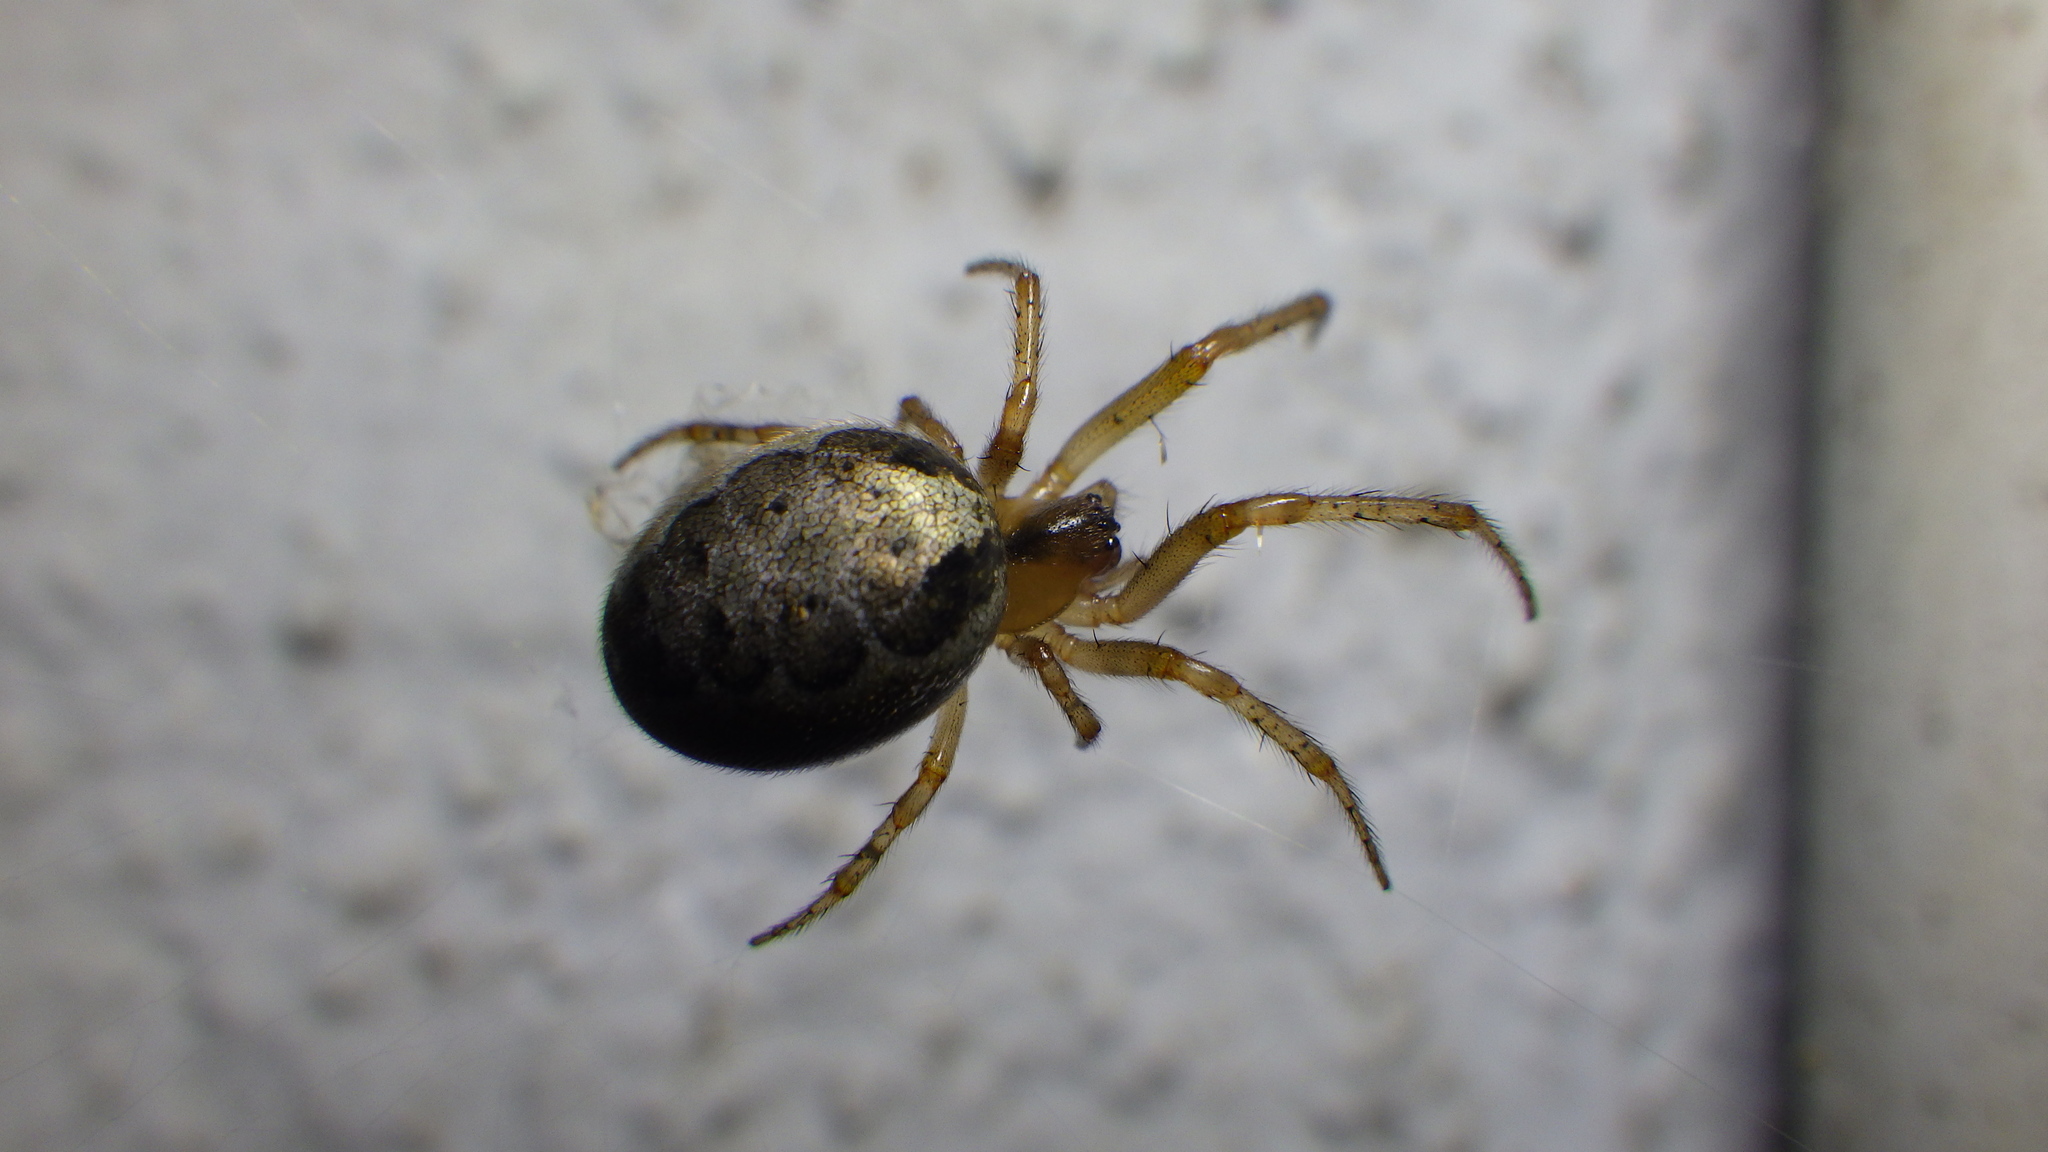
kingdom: Animalia
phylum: Arthropoda
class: Arachnida
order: Araneae
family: Araneidae
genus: Zygiella
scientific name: Zygiella x-notata
